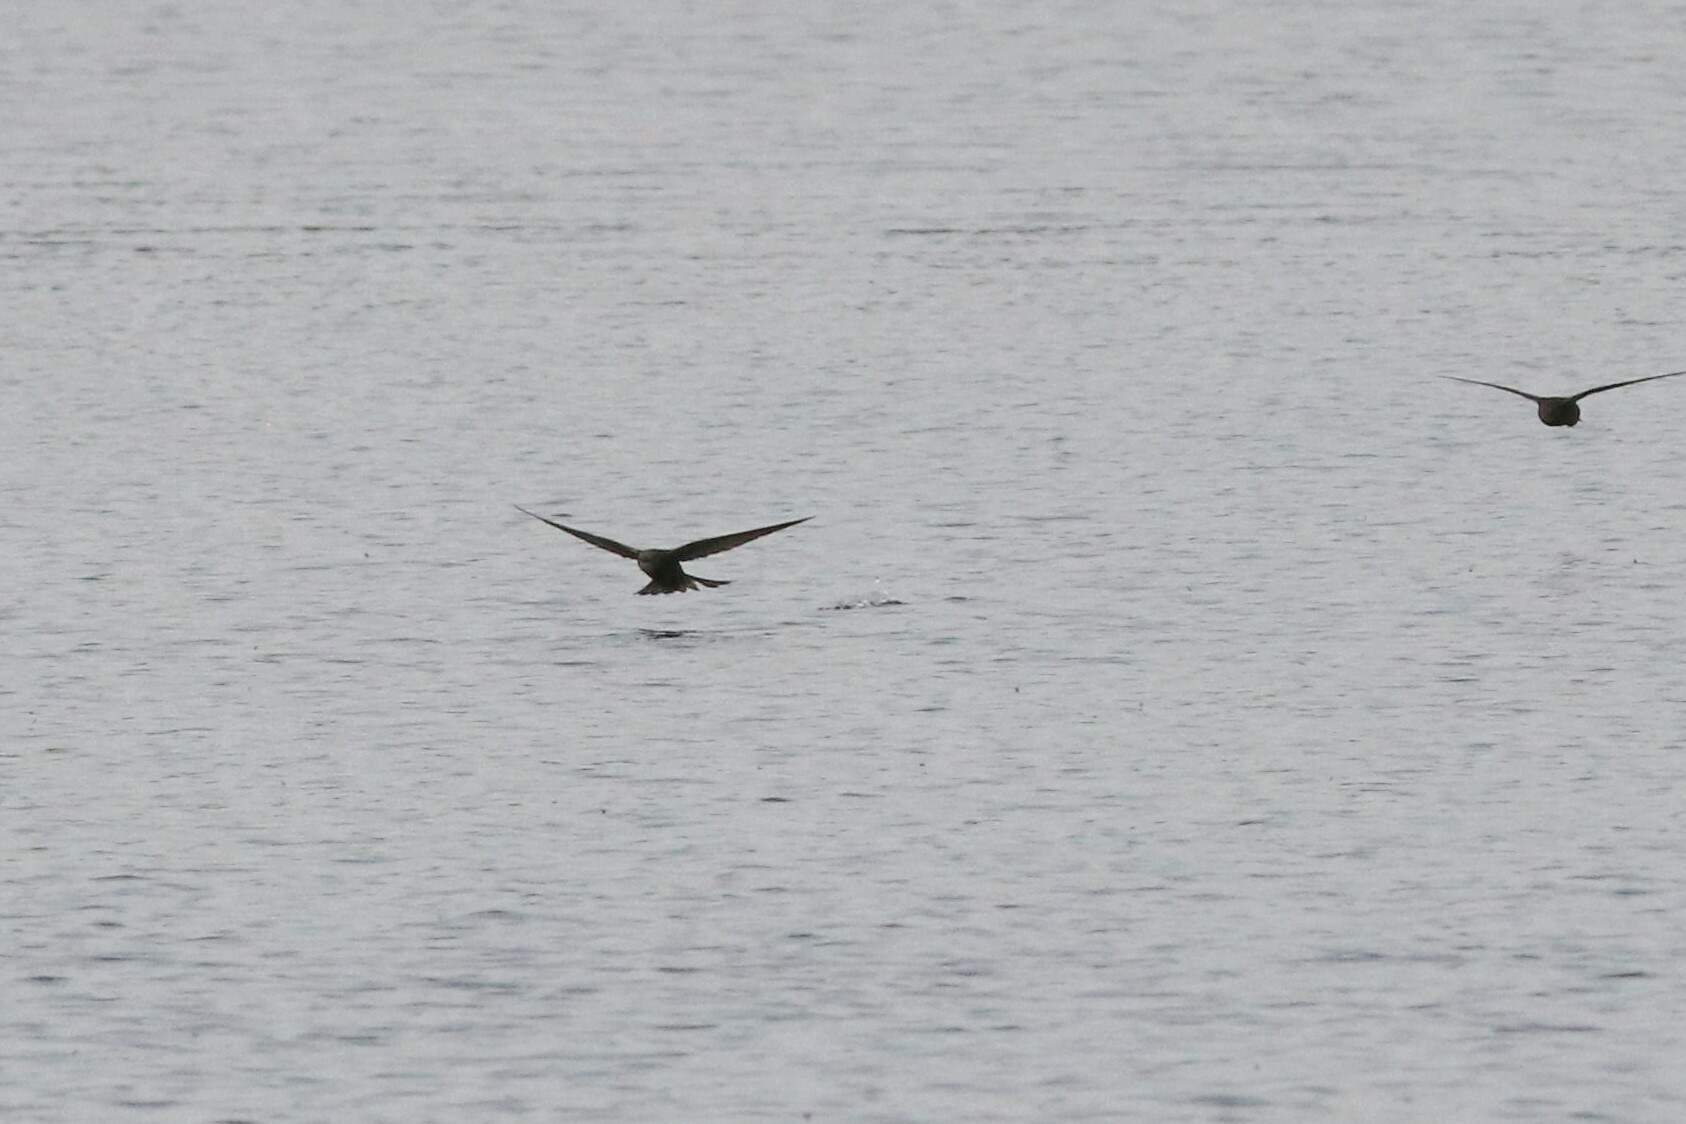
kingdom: Animalia
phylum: Chordata
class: Aves
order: Apodiformes
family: Apodidae
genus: Apus
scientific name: Apus apus
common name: Common swift
